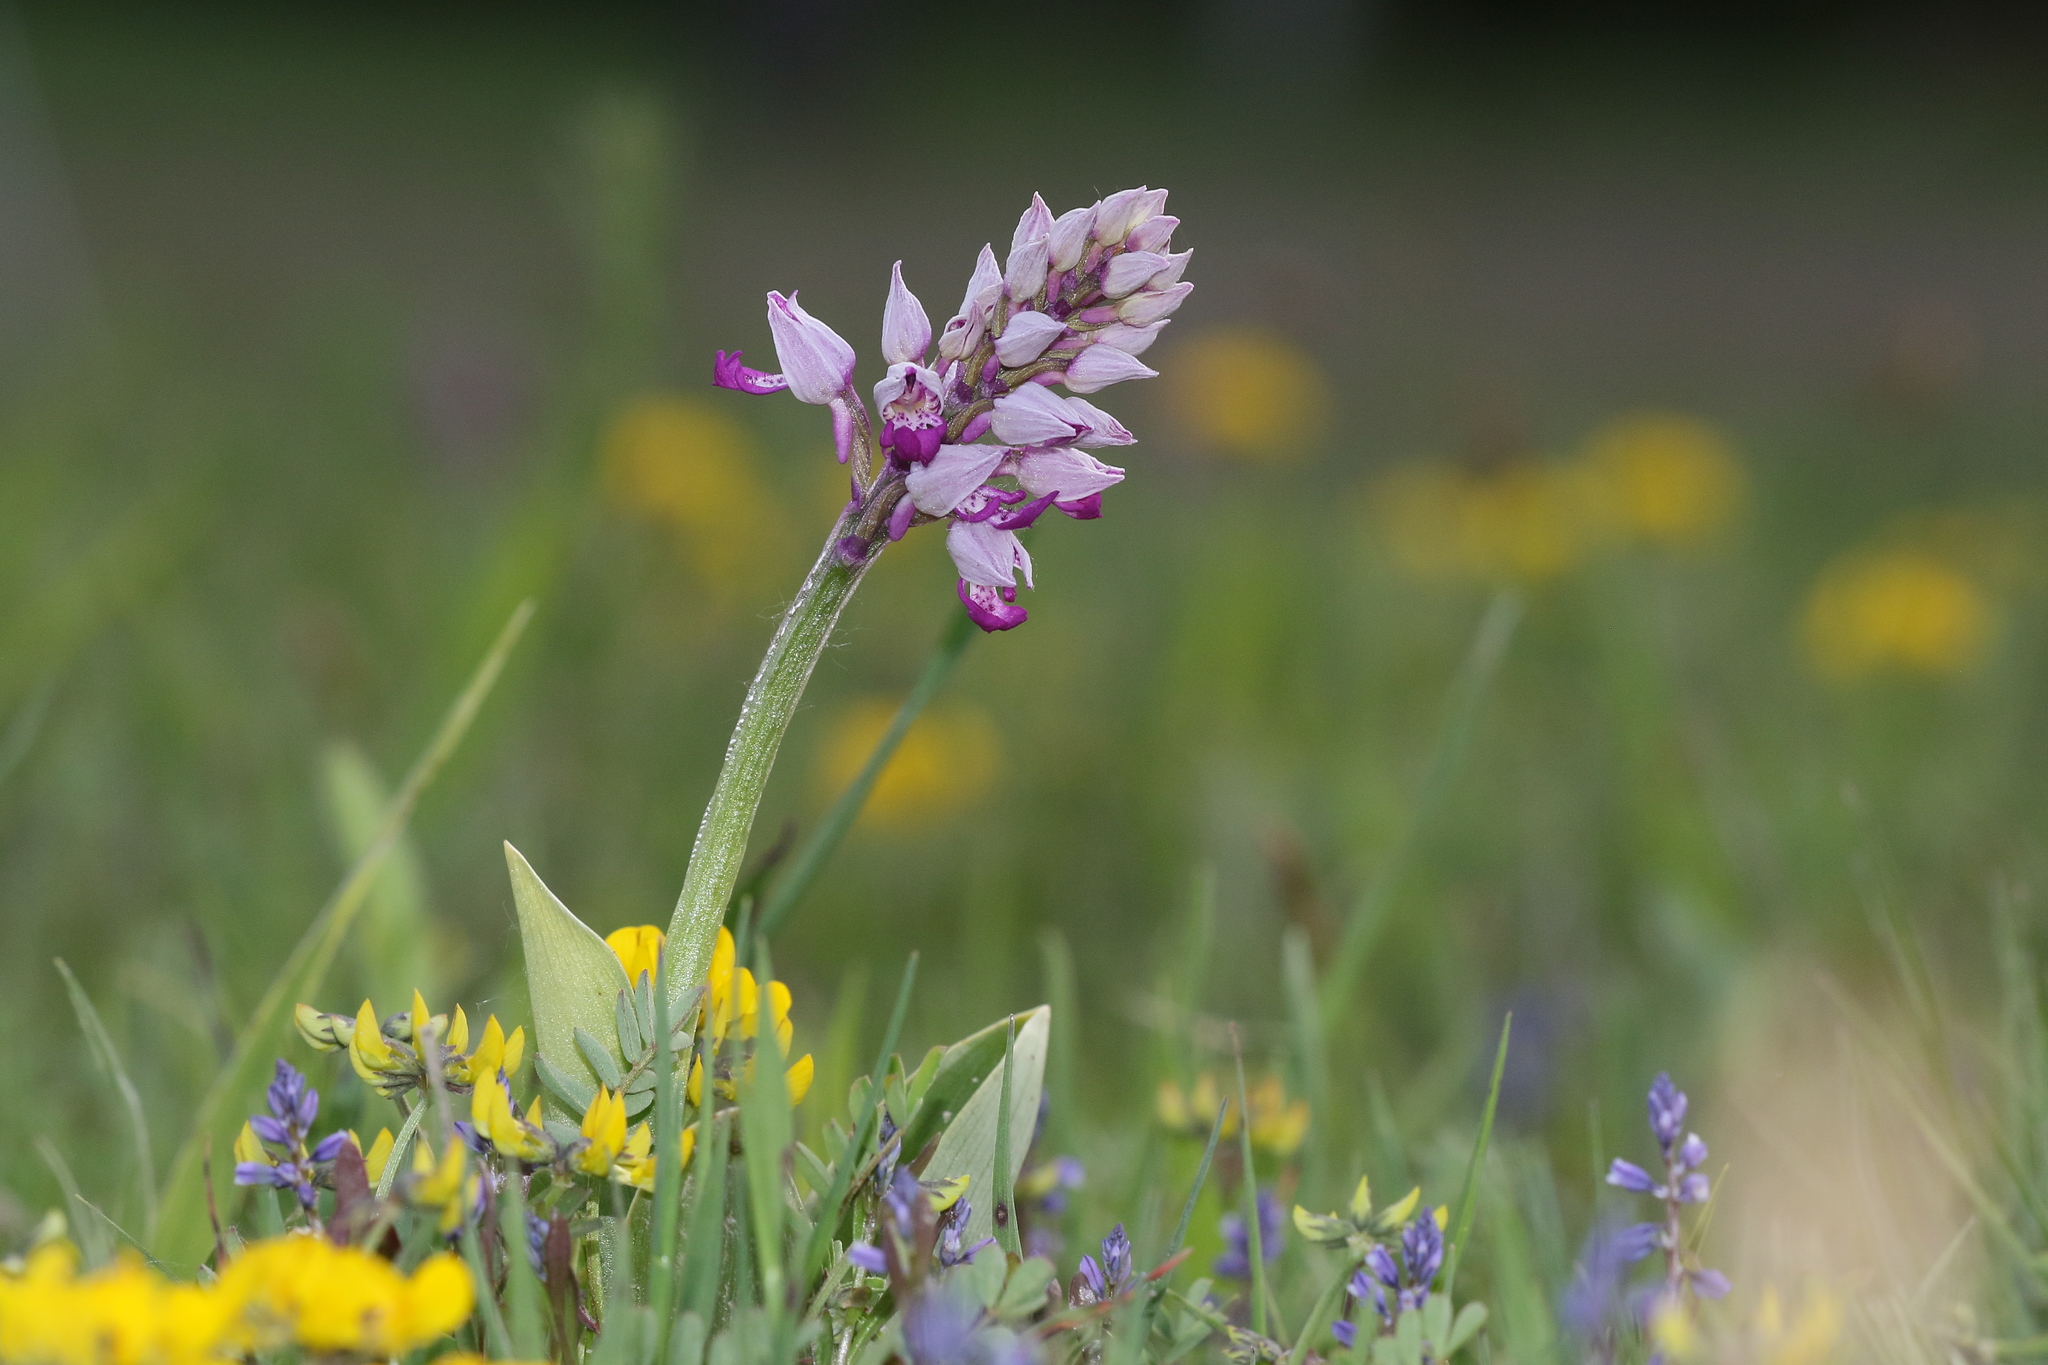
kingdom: Plantae
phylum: Tracheophyta
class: Liliopsida
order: Asparagales
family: Orchidaceae
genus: Orchis
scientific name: Orchis militaris
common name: Military orchid
